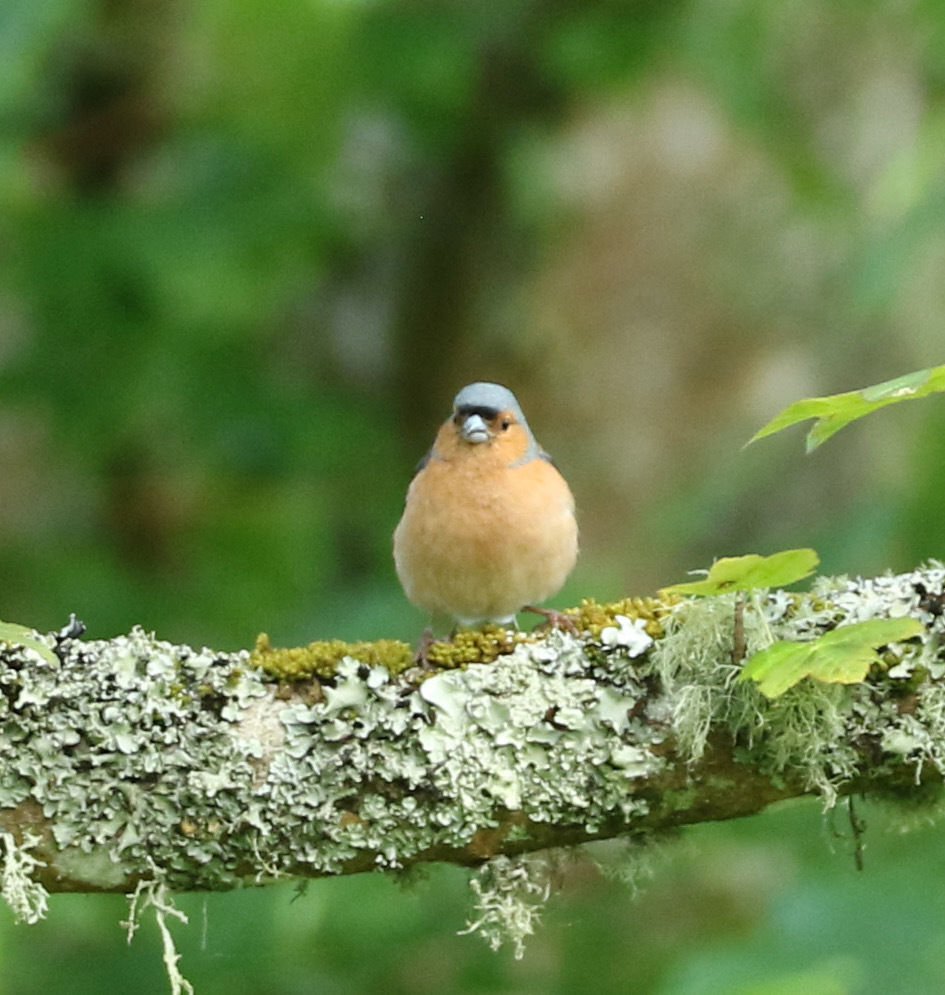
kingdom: Animalia
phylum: Chordata
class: Aves
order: Passeriformes
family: Fringillidae
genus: Fringilla
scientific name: Fringilla coelebs
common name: Common chaffinch
